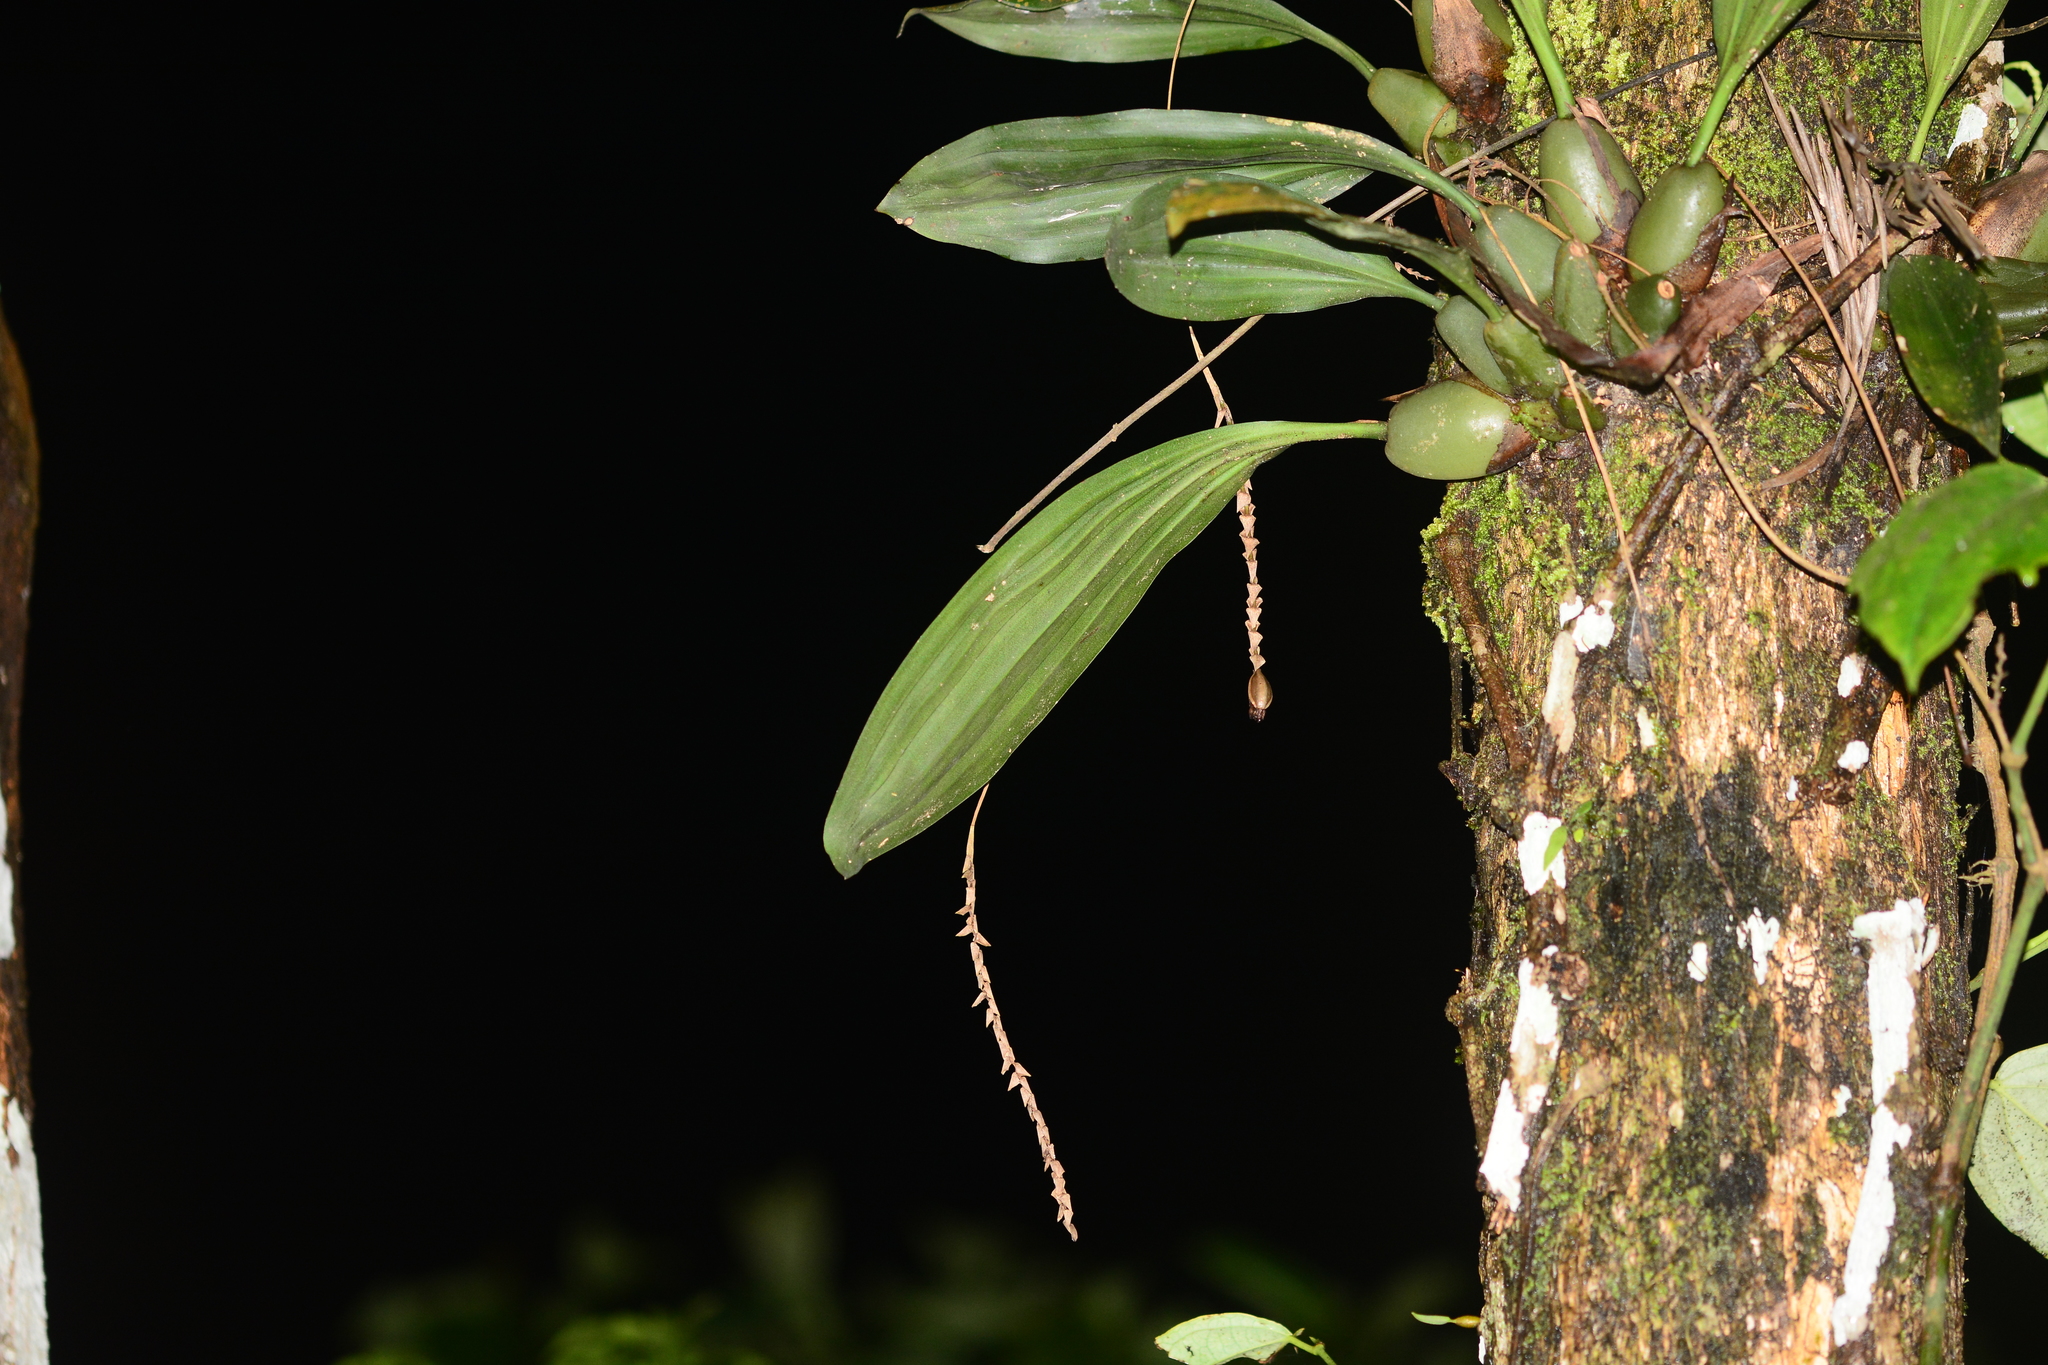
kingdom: Plantae
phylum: Tracheophyta
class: Liliopsida
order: Asparagales
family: Orchidaceae
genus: Pholidota
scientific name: Pholidota imbricata
